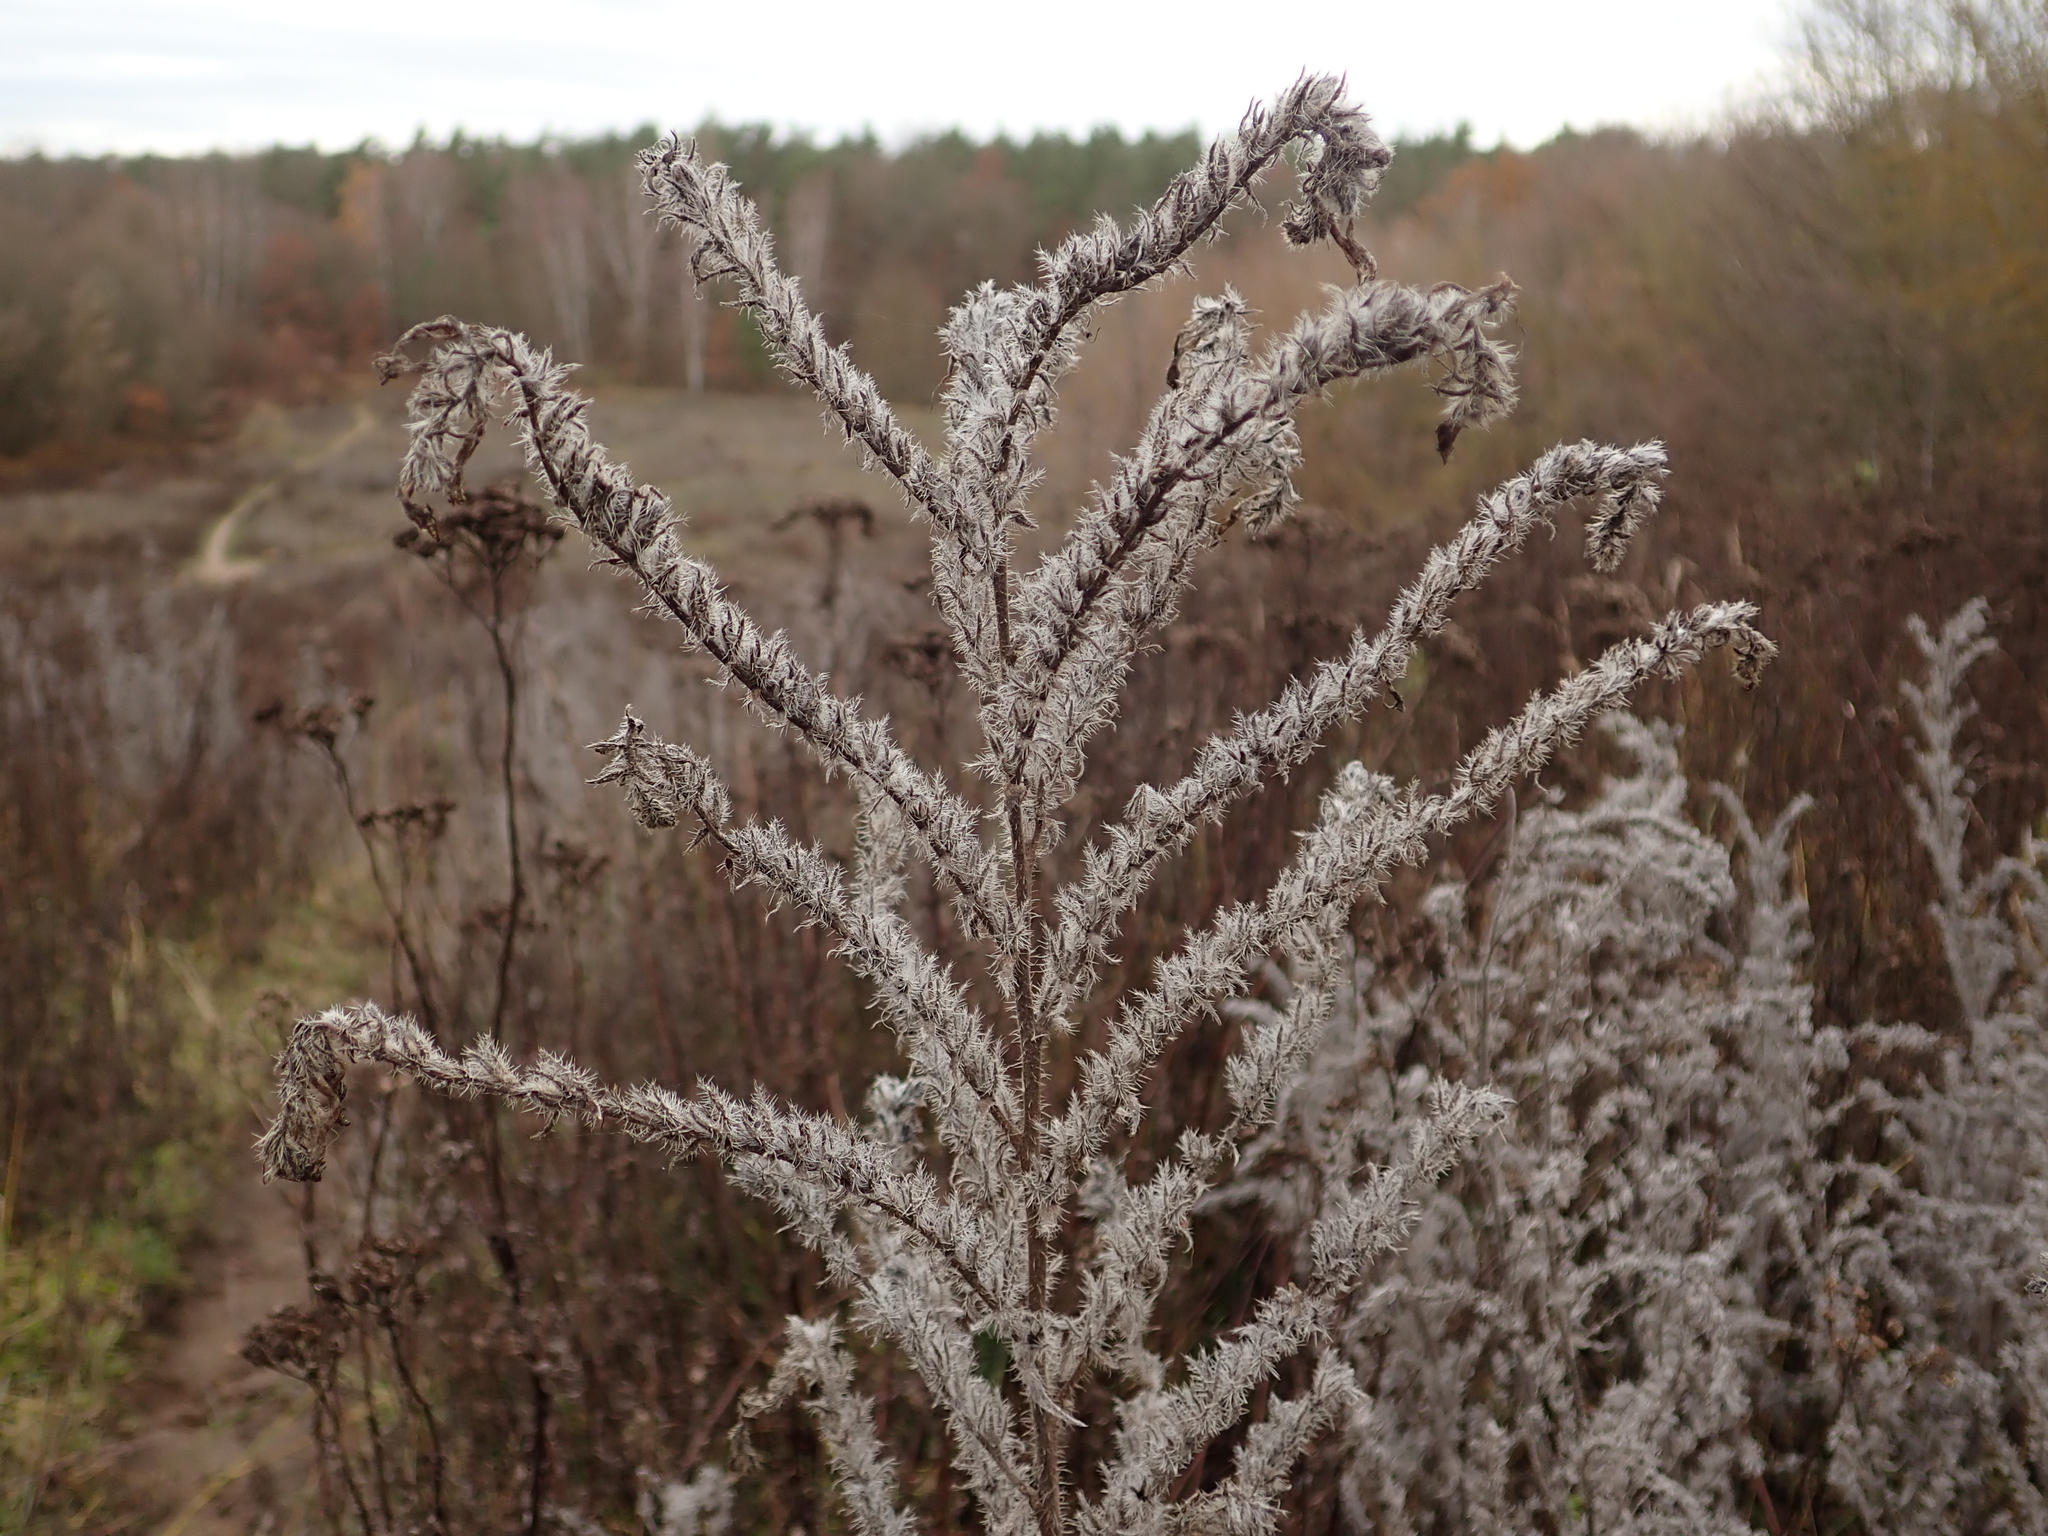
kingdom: Plantae
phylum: Tracheophyta
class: Magnoliopsida
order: Boraginales
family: Boraginaceae
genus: Echium
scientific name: Echium vulgare
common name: Common viper's bugloss
